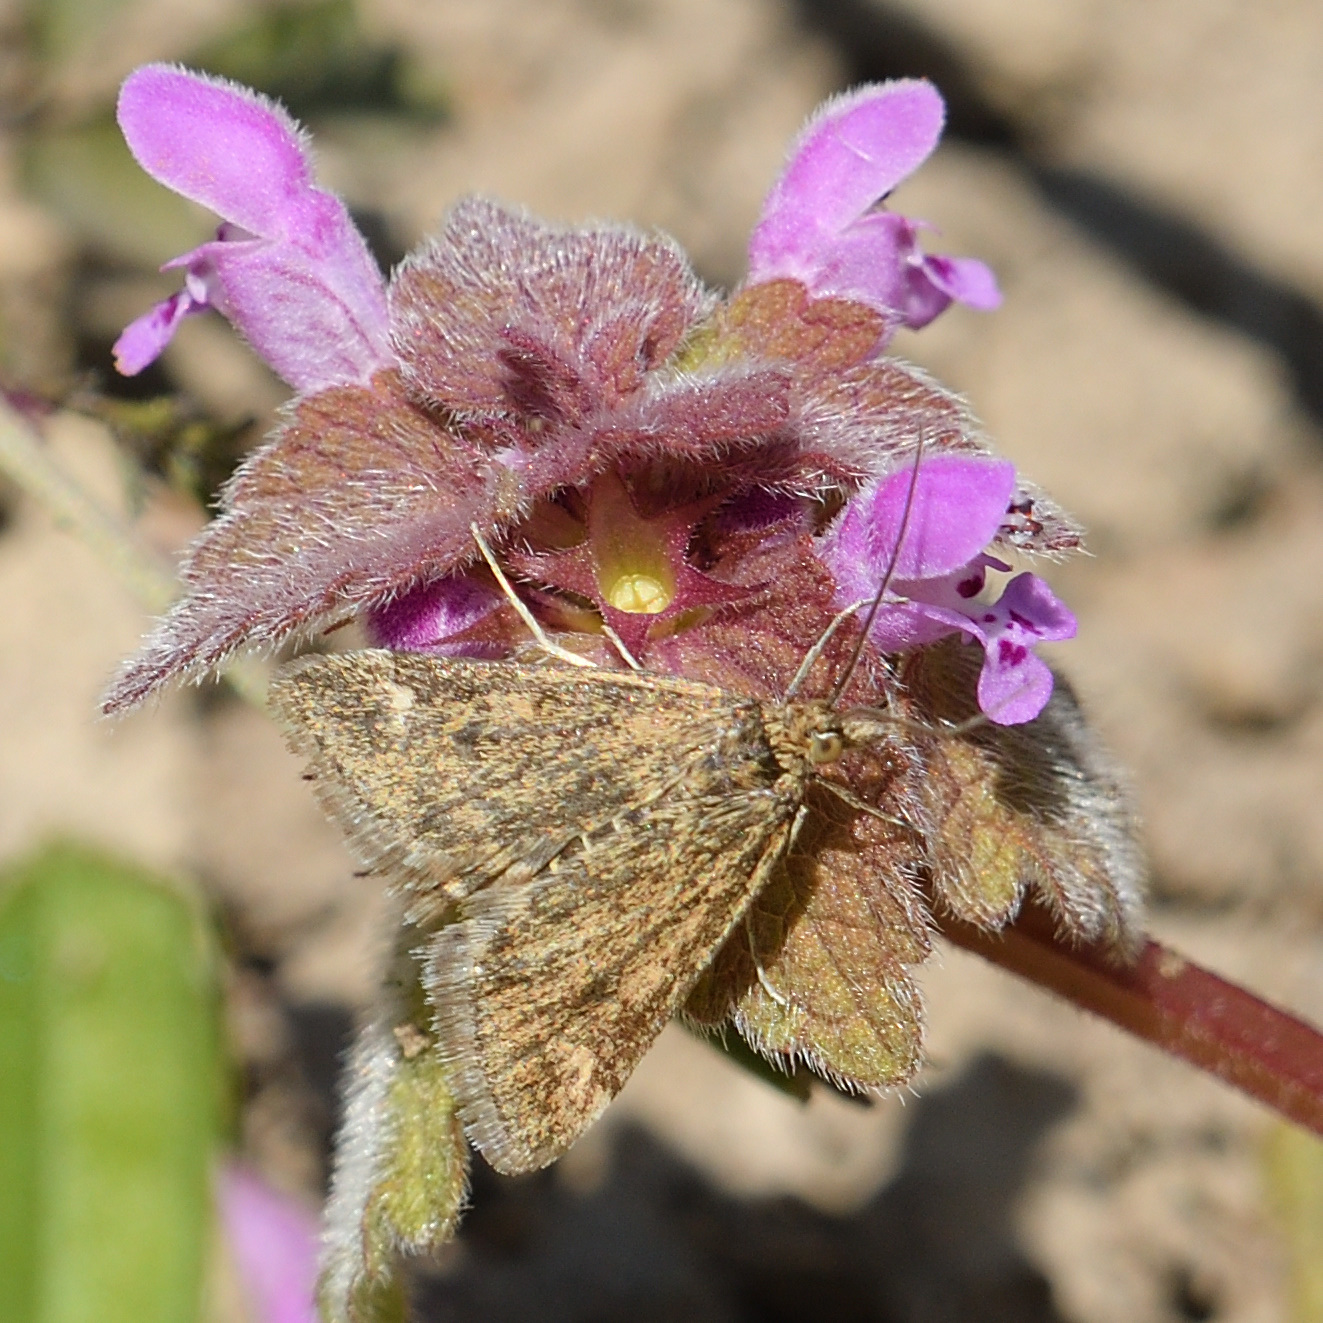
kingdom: Animalia
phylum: Arthropoda
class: Insecta
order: Lepidoptera
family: Crambidae
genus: Pyrausta
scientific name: Pyrausta despicata
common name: Straw-barred pearl
